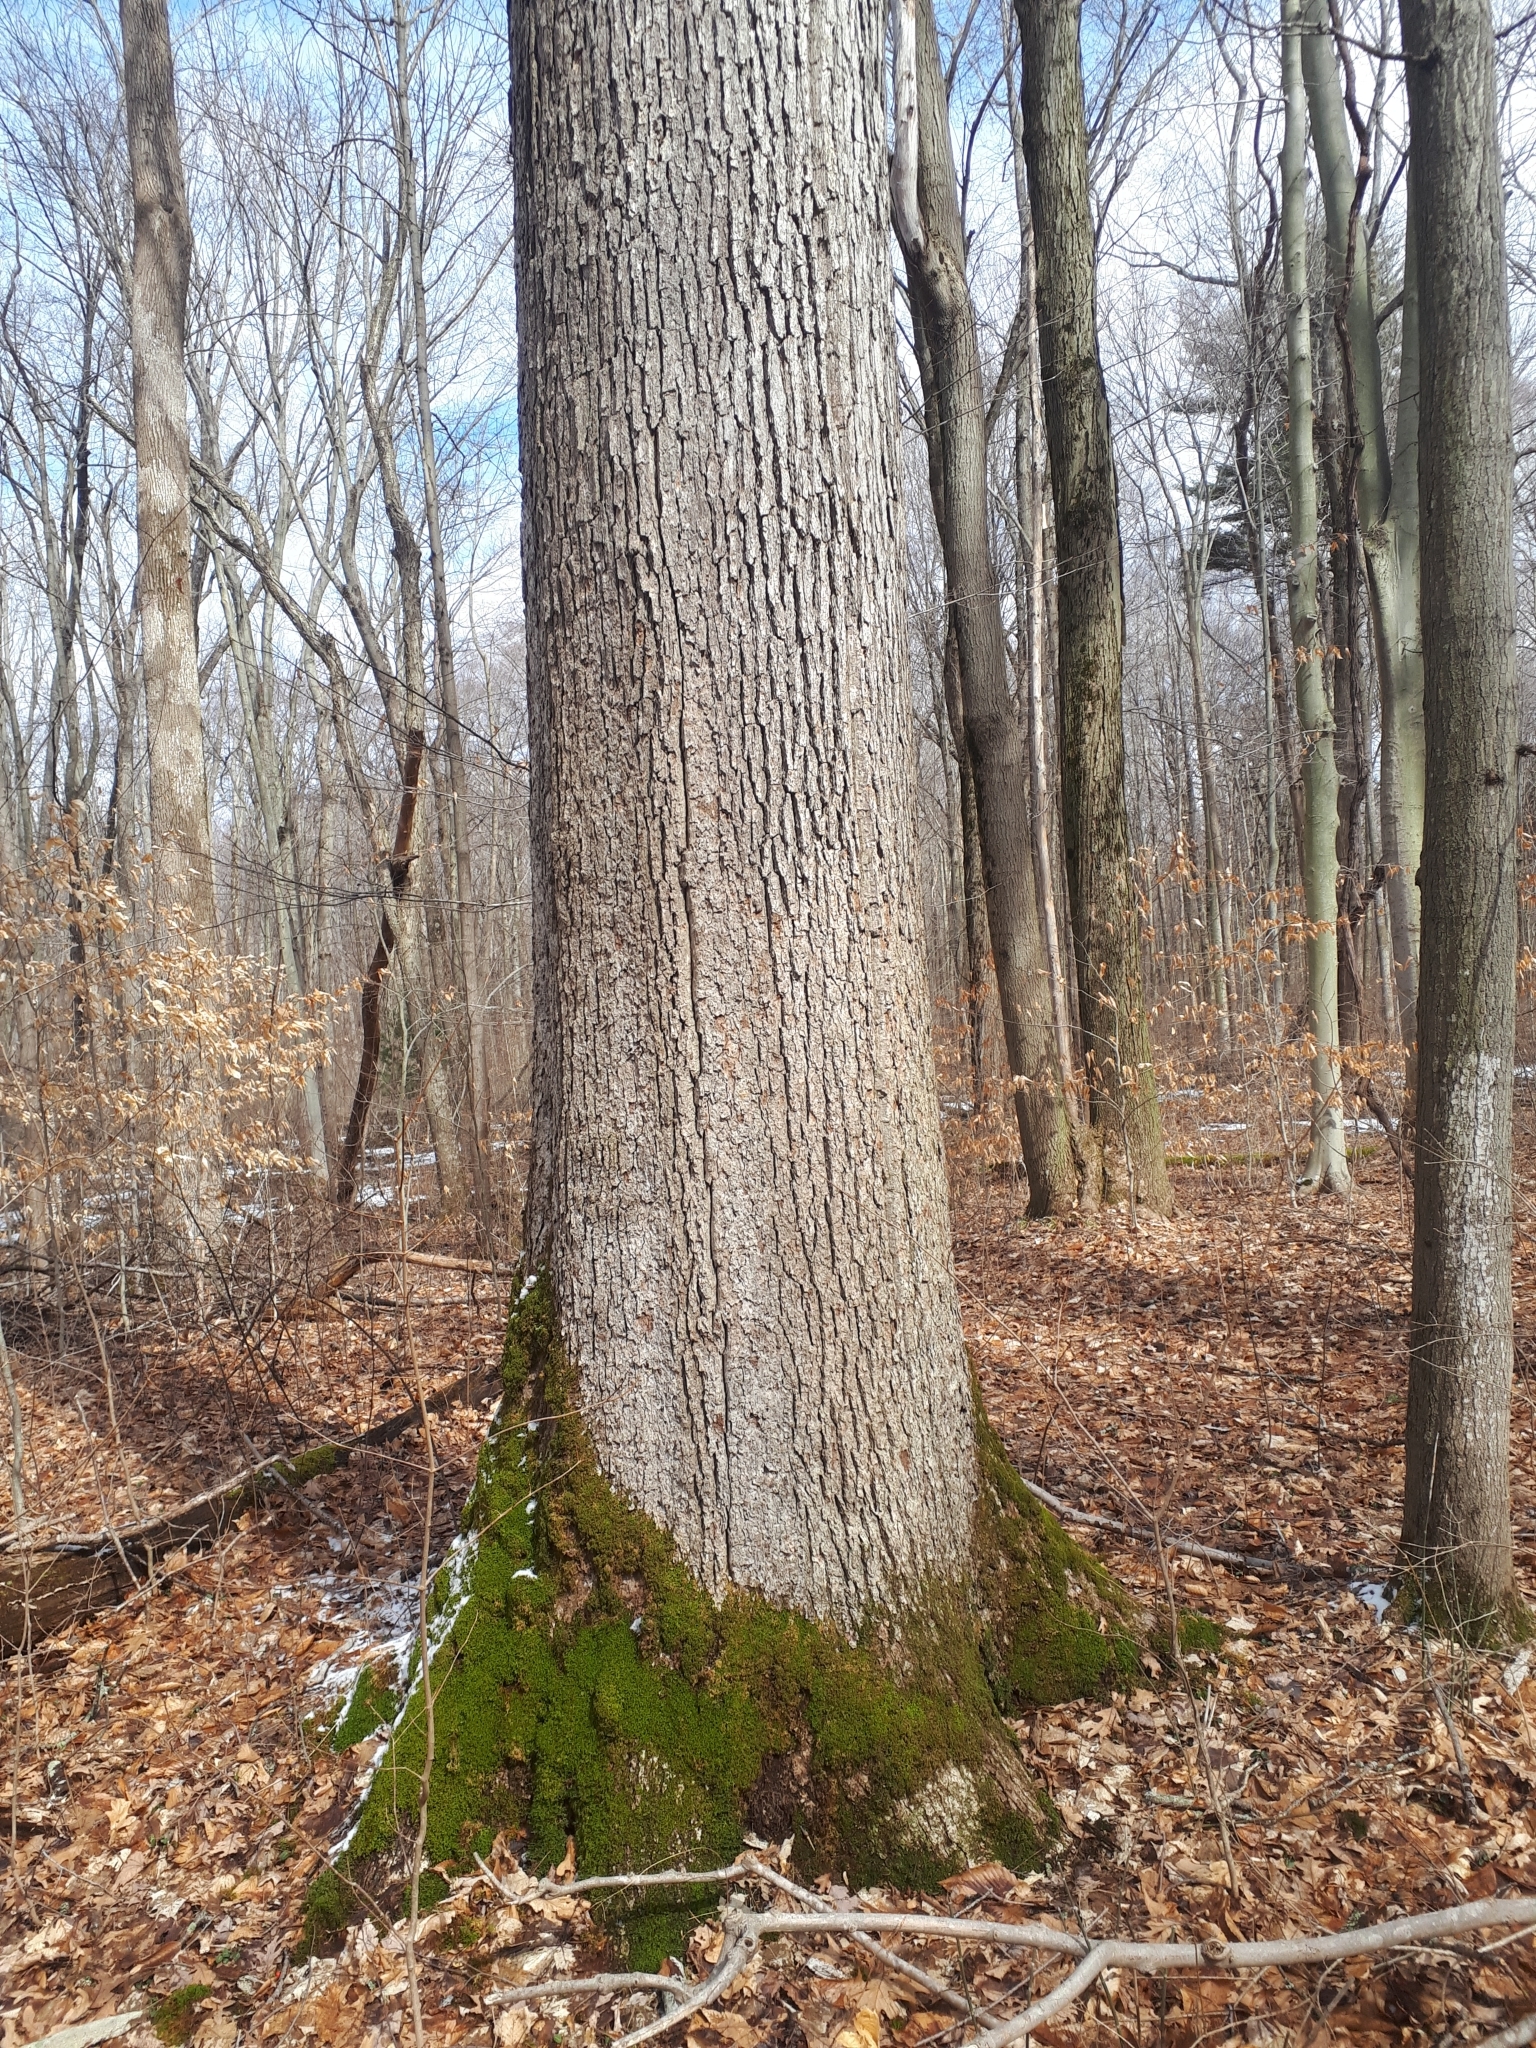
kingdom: Plantae
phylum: Tracheophyta
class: Magnoliopsida
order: Fagales
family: Fagaceae
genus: Quercus
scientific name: Quercus alba
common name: White oak
